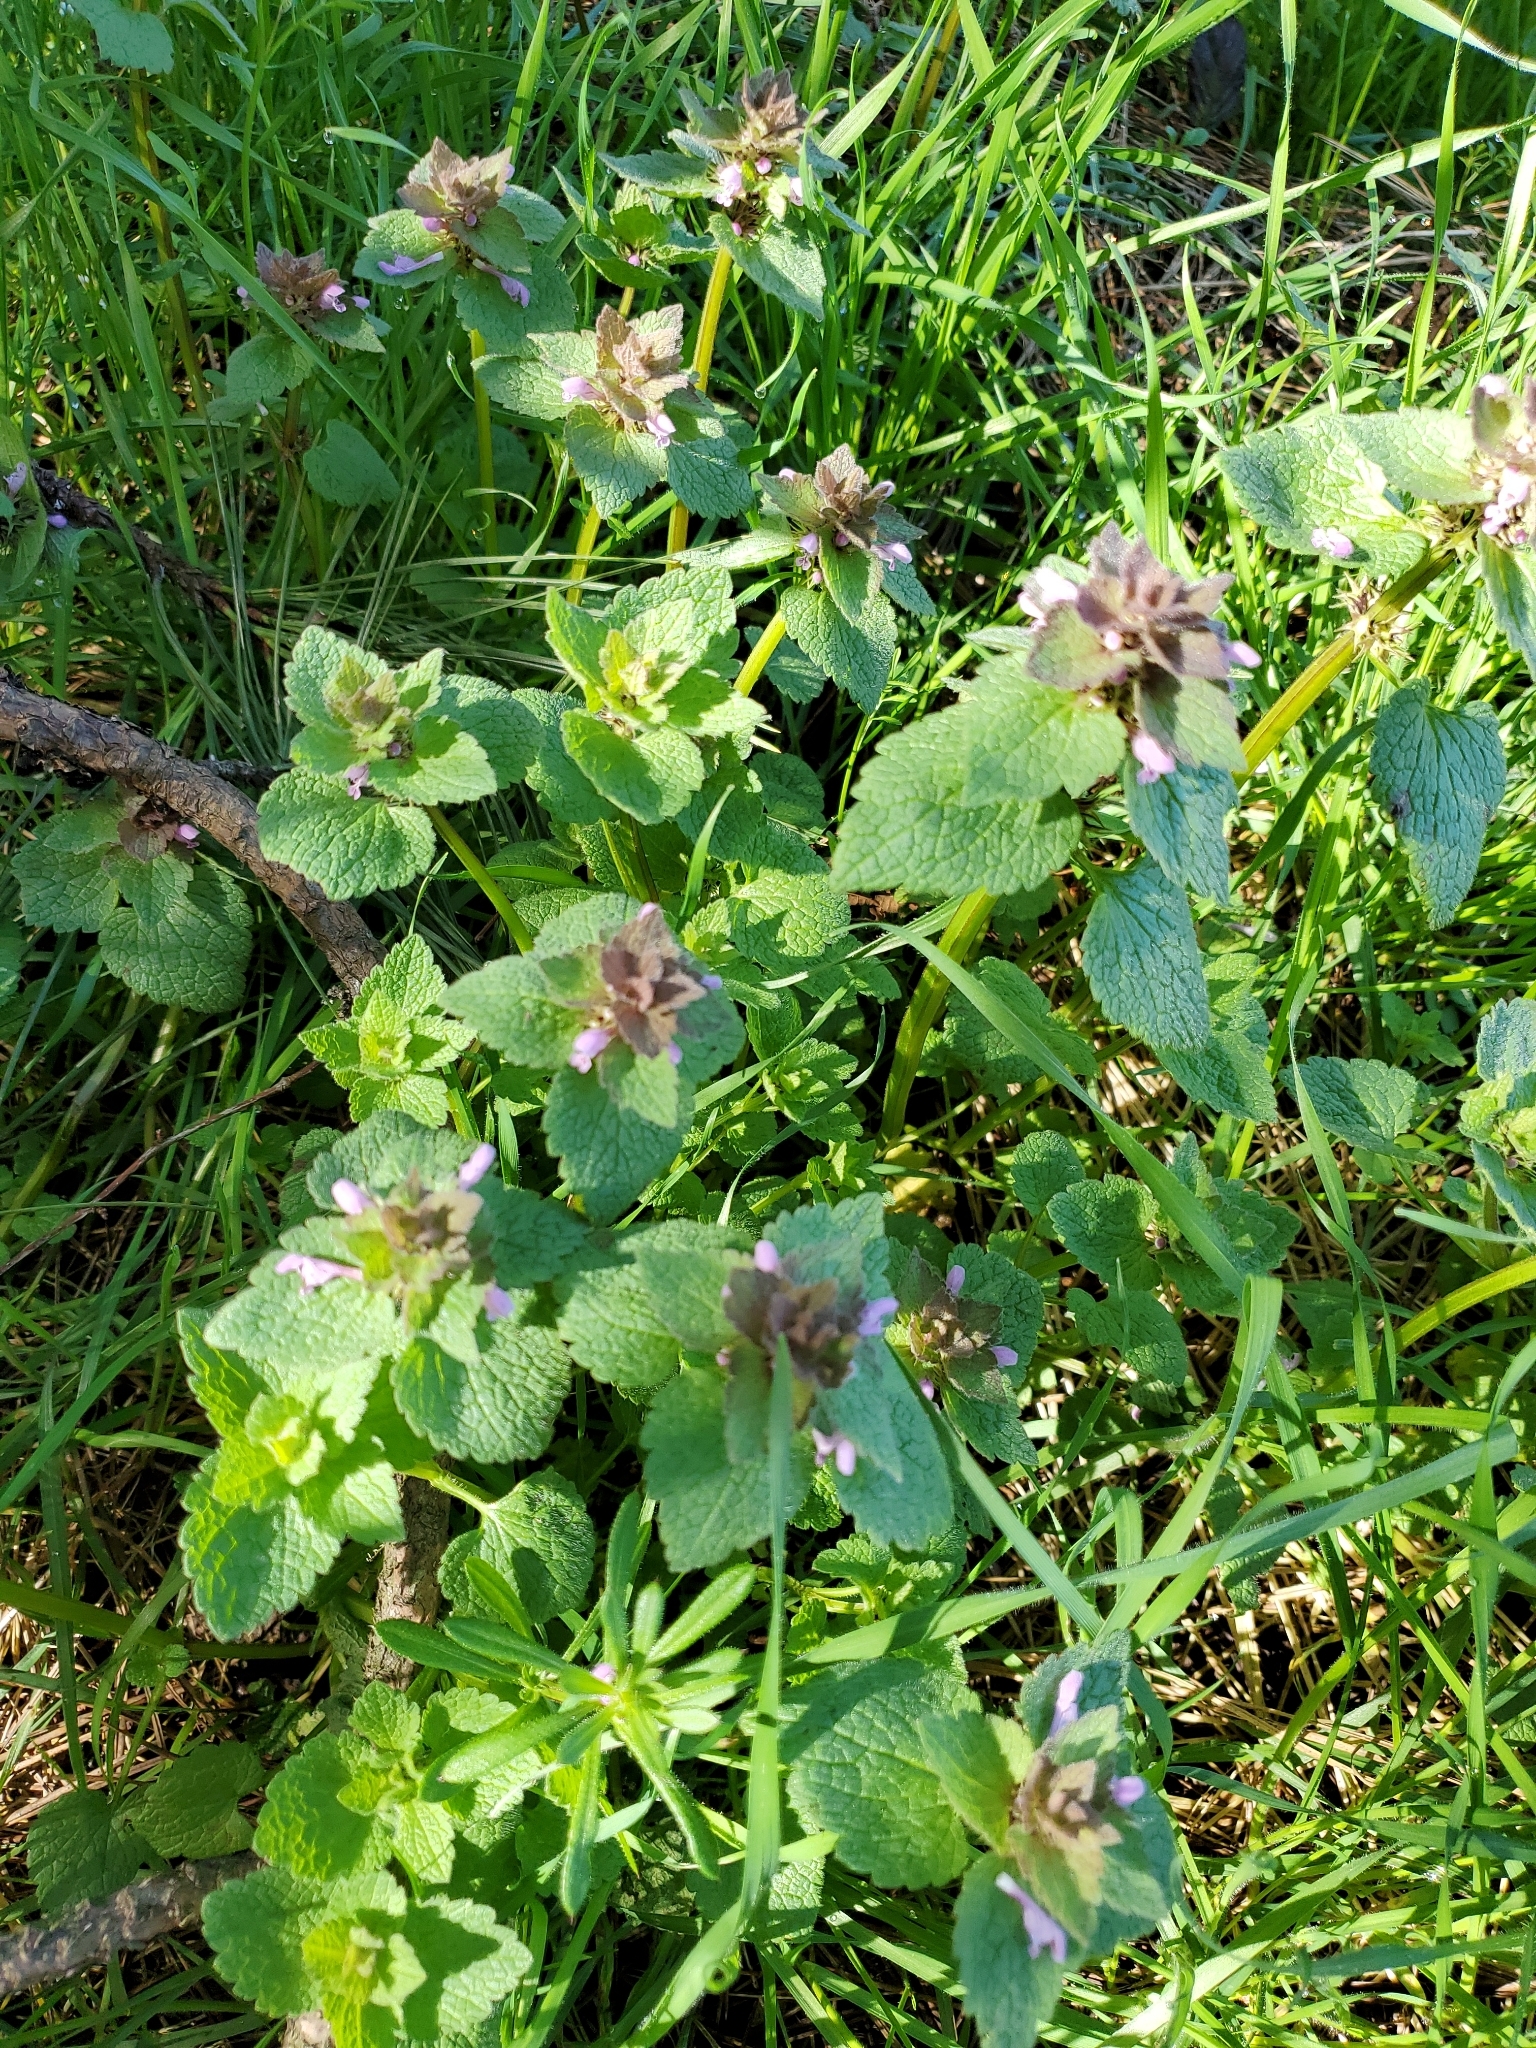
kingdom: Plantae
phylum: Tracheophyta
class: Magnoliopsida
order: Lamiales
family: Lamiaceae
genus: Lamium
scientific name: Lamium purpureum
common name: Red dead-nettle
